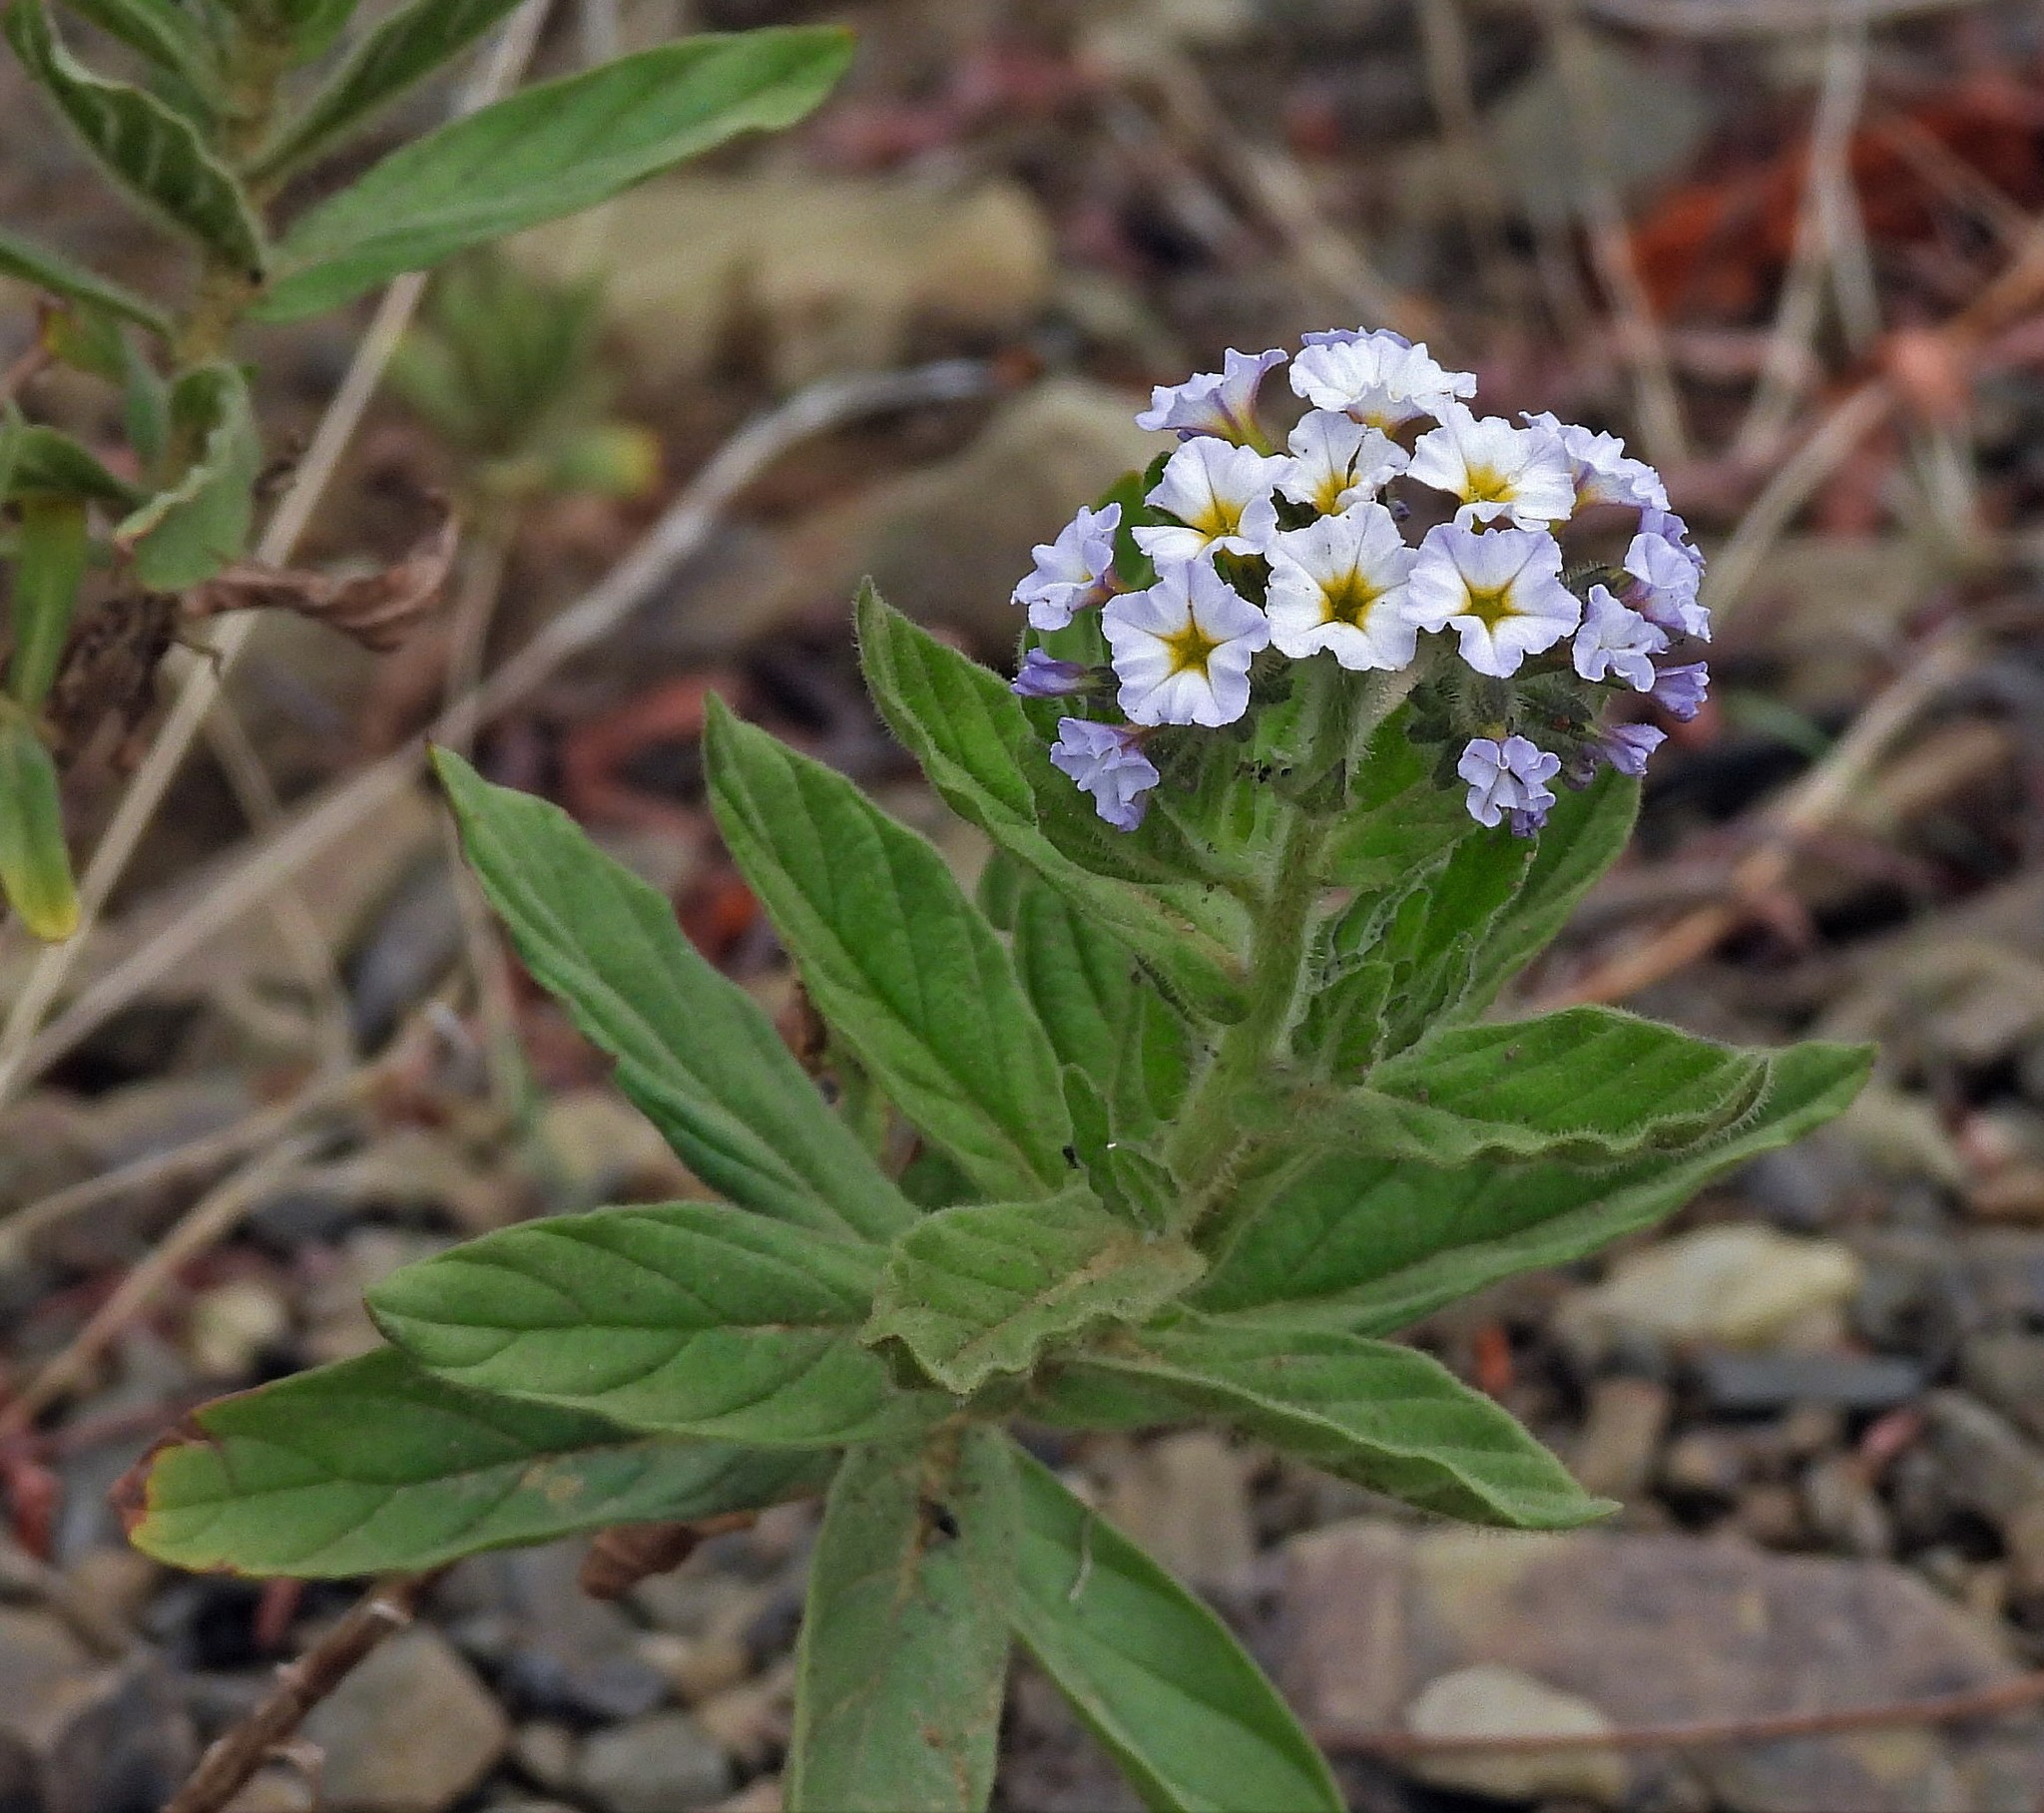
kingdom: Plantae
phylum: Tracheophyta
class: Magnoliopsida
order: Boraginales
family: Heliotropiaceae
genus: Heliotropium
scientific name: Heliotropium amplexicaule
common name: Clasping heliotrope
